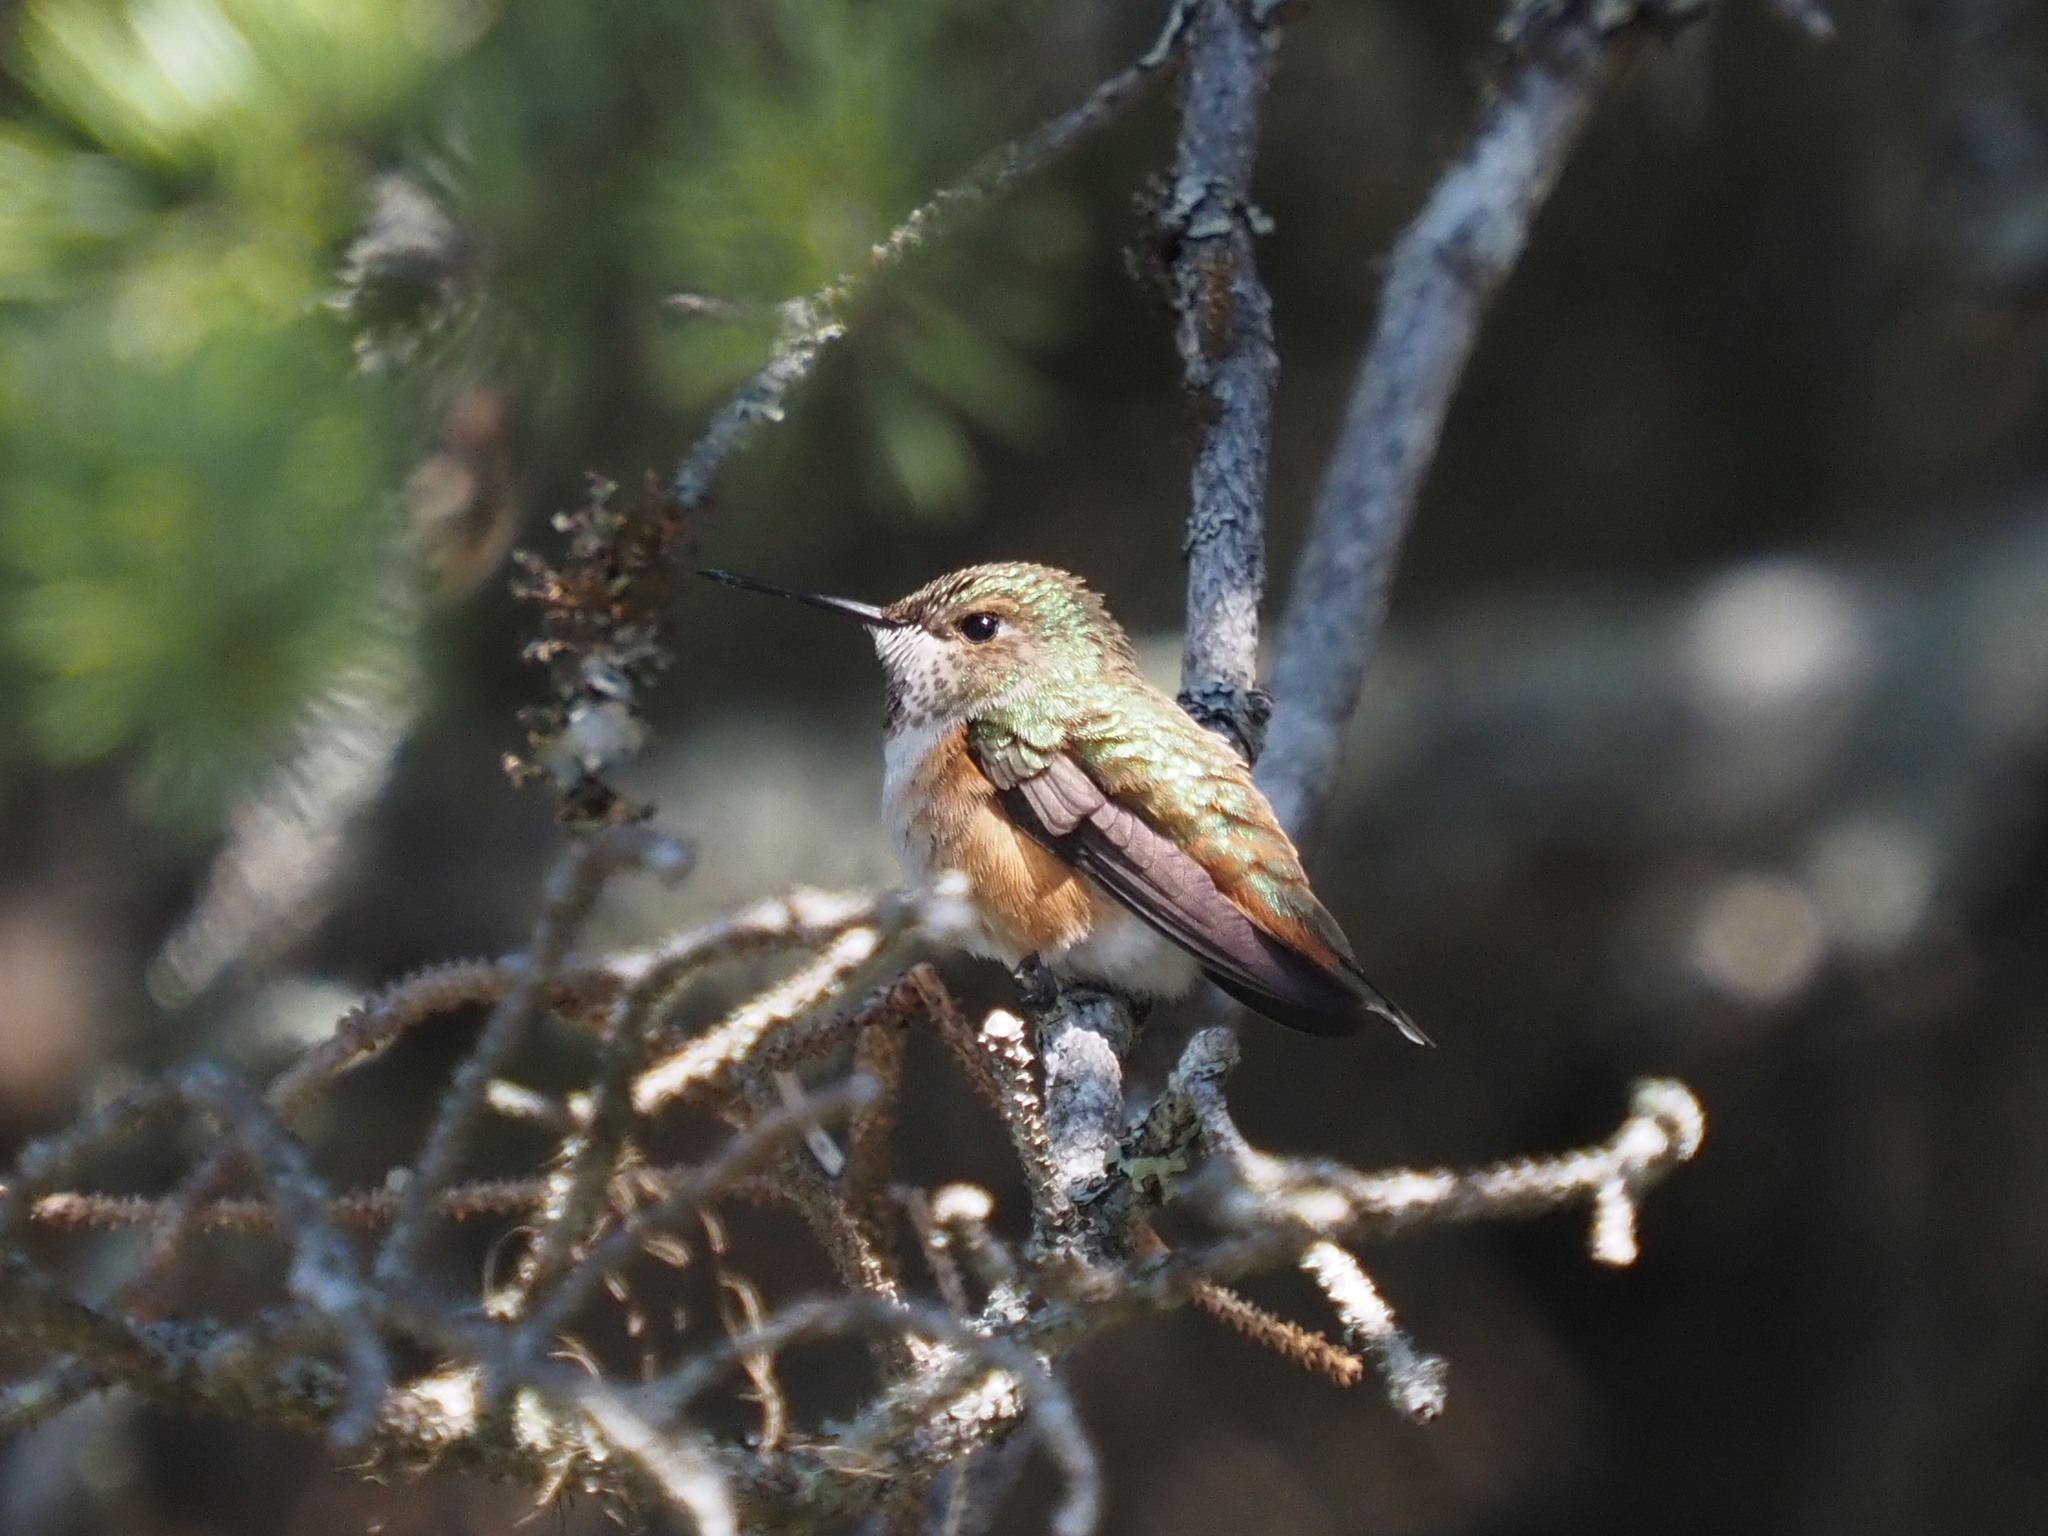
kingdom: Animalia
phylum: Chordata
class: Aves
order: Apodiformes
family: Trochilidae
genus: Selasphorus
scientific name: Selasphorus rufus
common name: Rufous hummingbird
